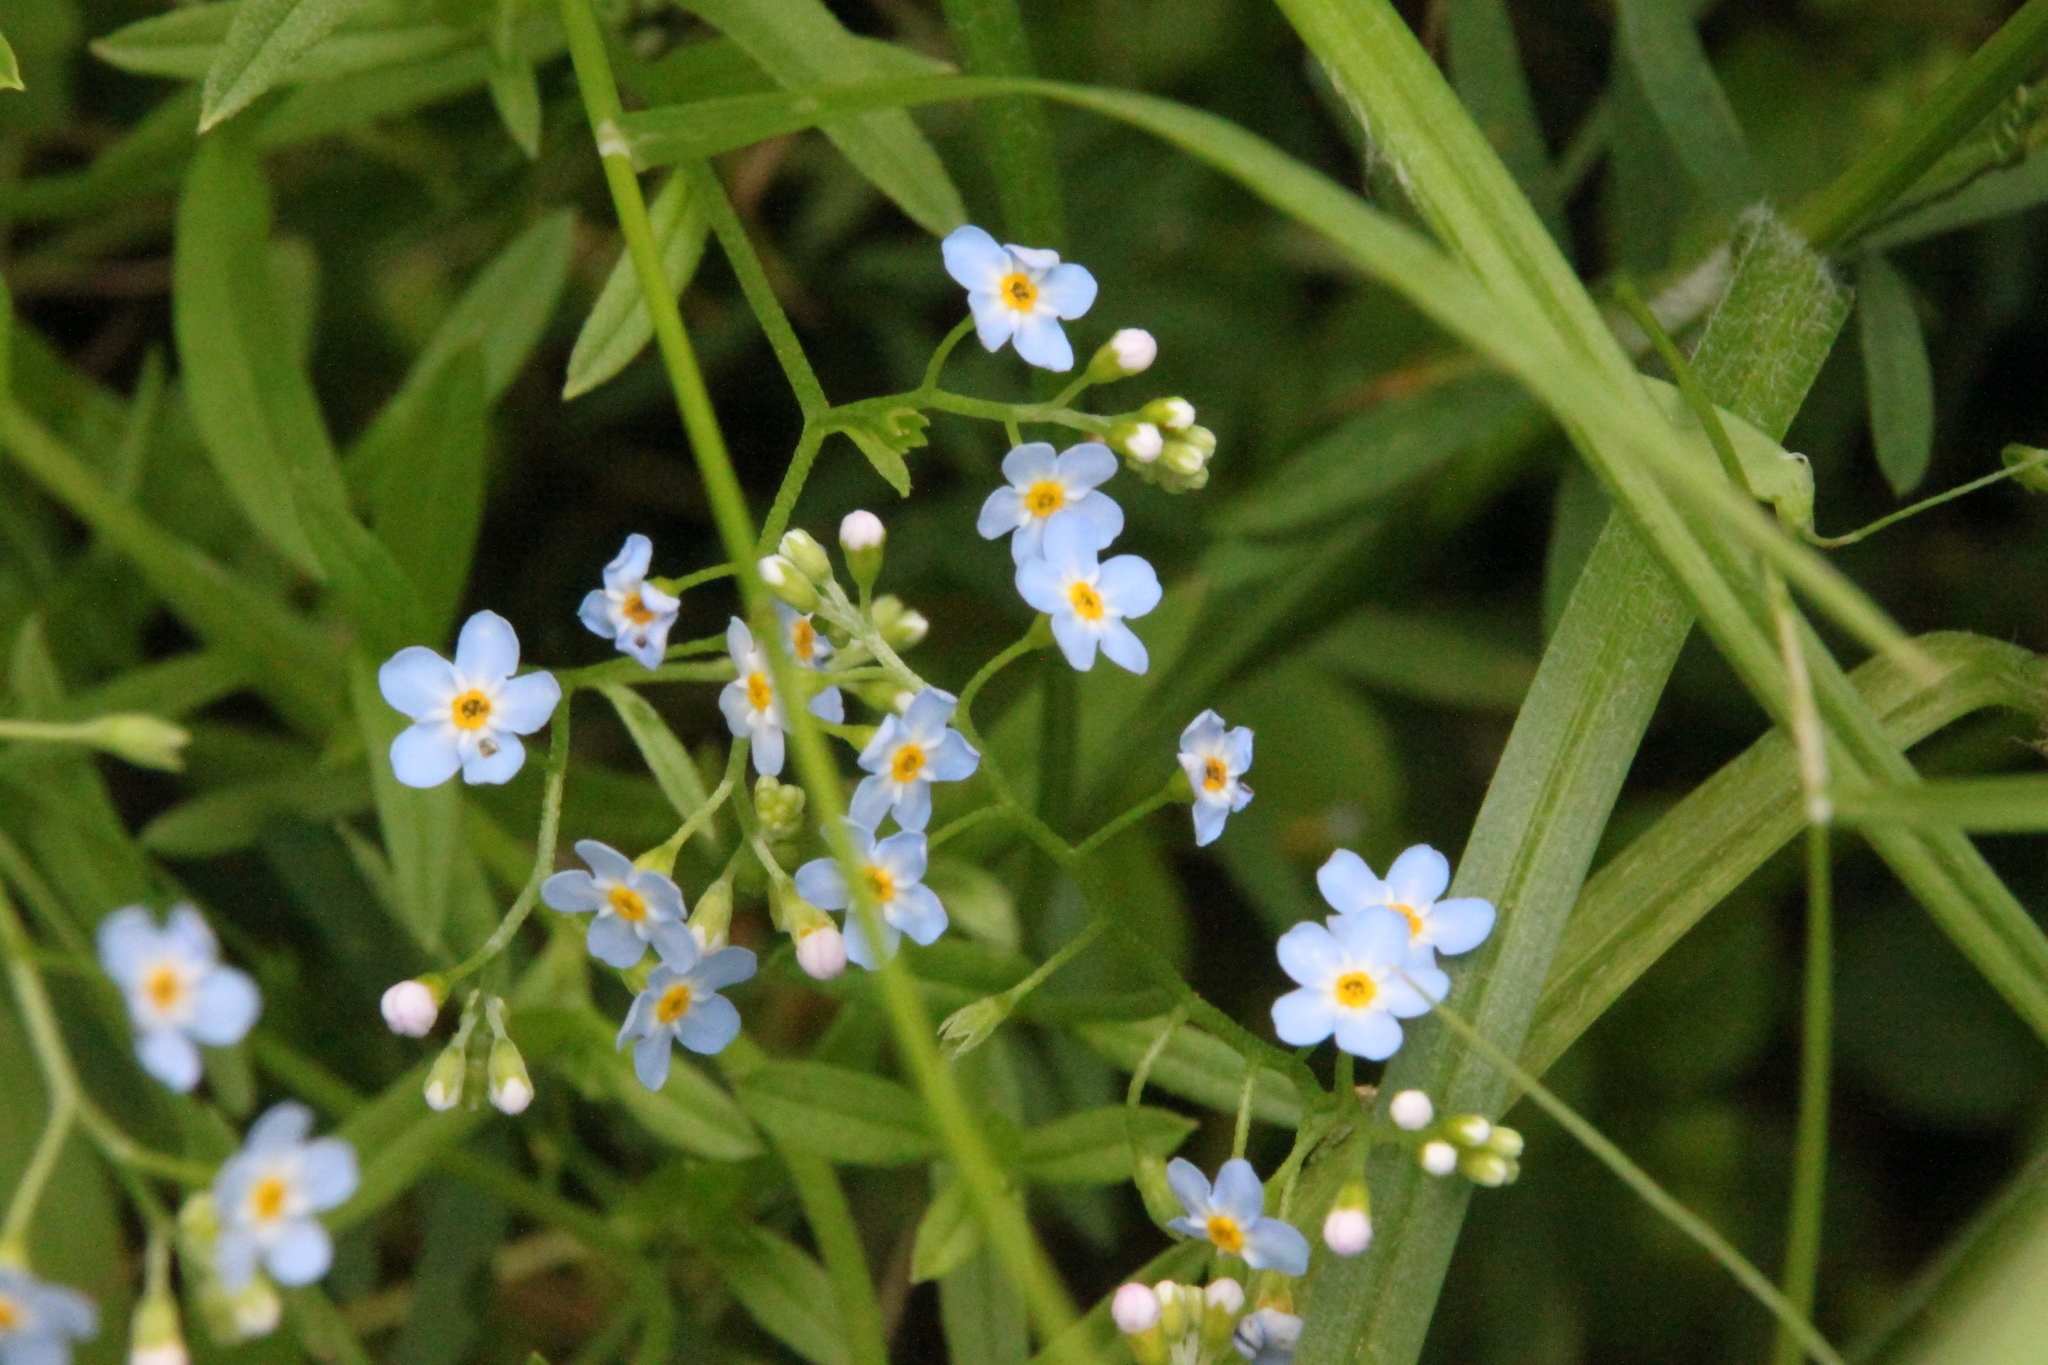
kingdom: Plantae
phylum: Tracheophyta
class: Magnoliopsida
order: Boraginales
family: Boraginaceae
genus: Myosotis
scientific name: Myosotis scorpioides
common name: Water forget-me-not
